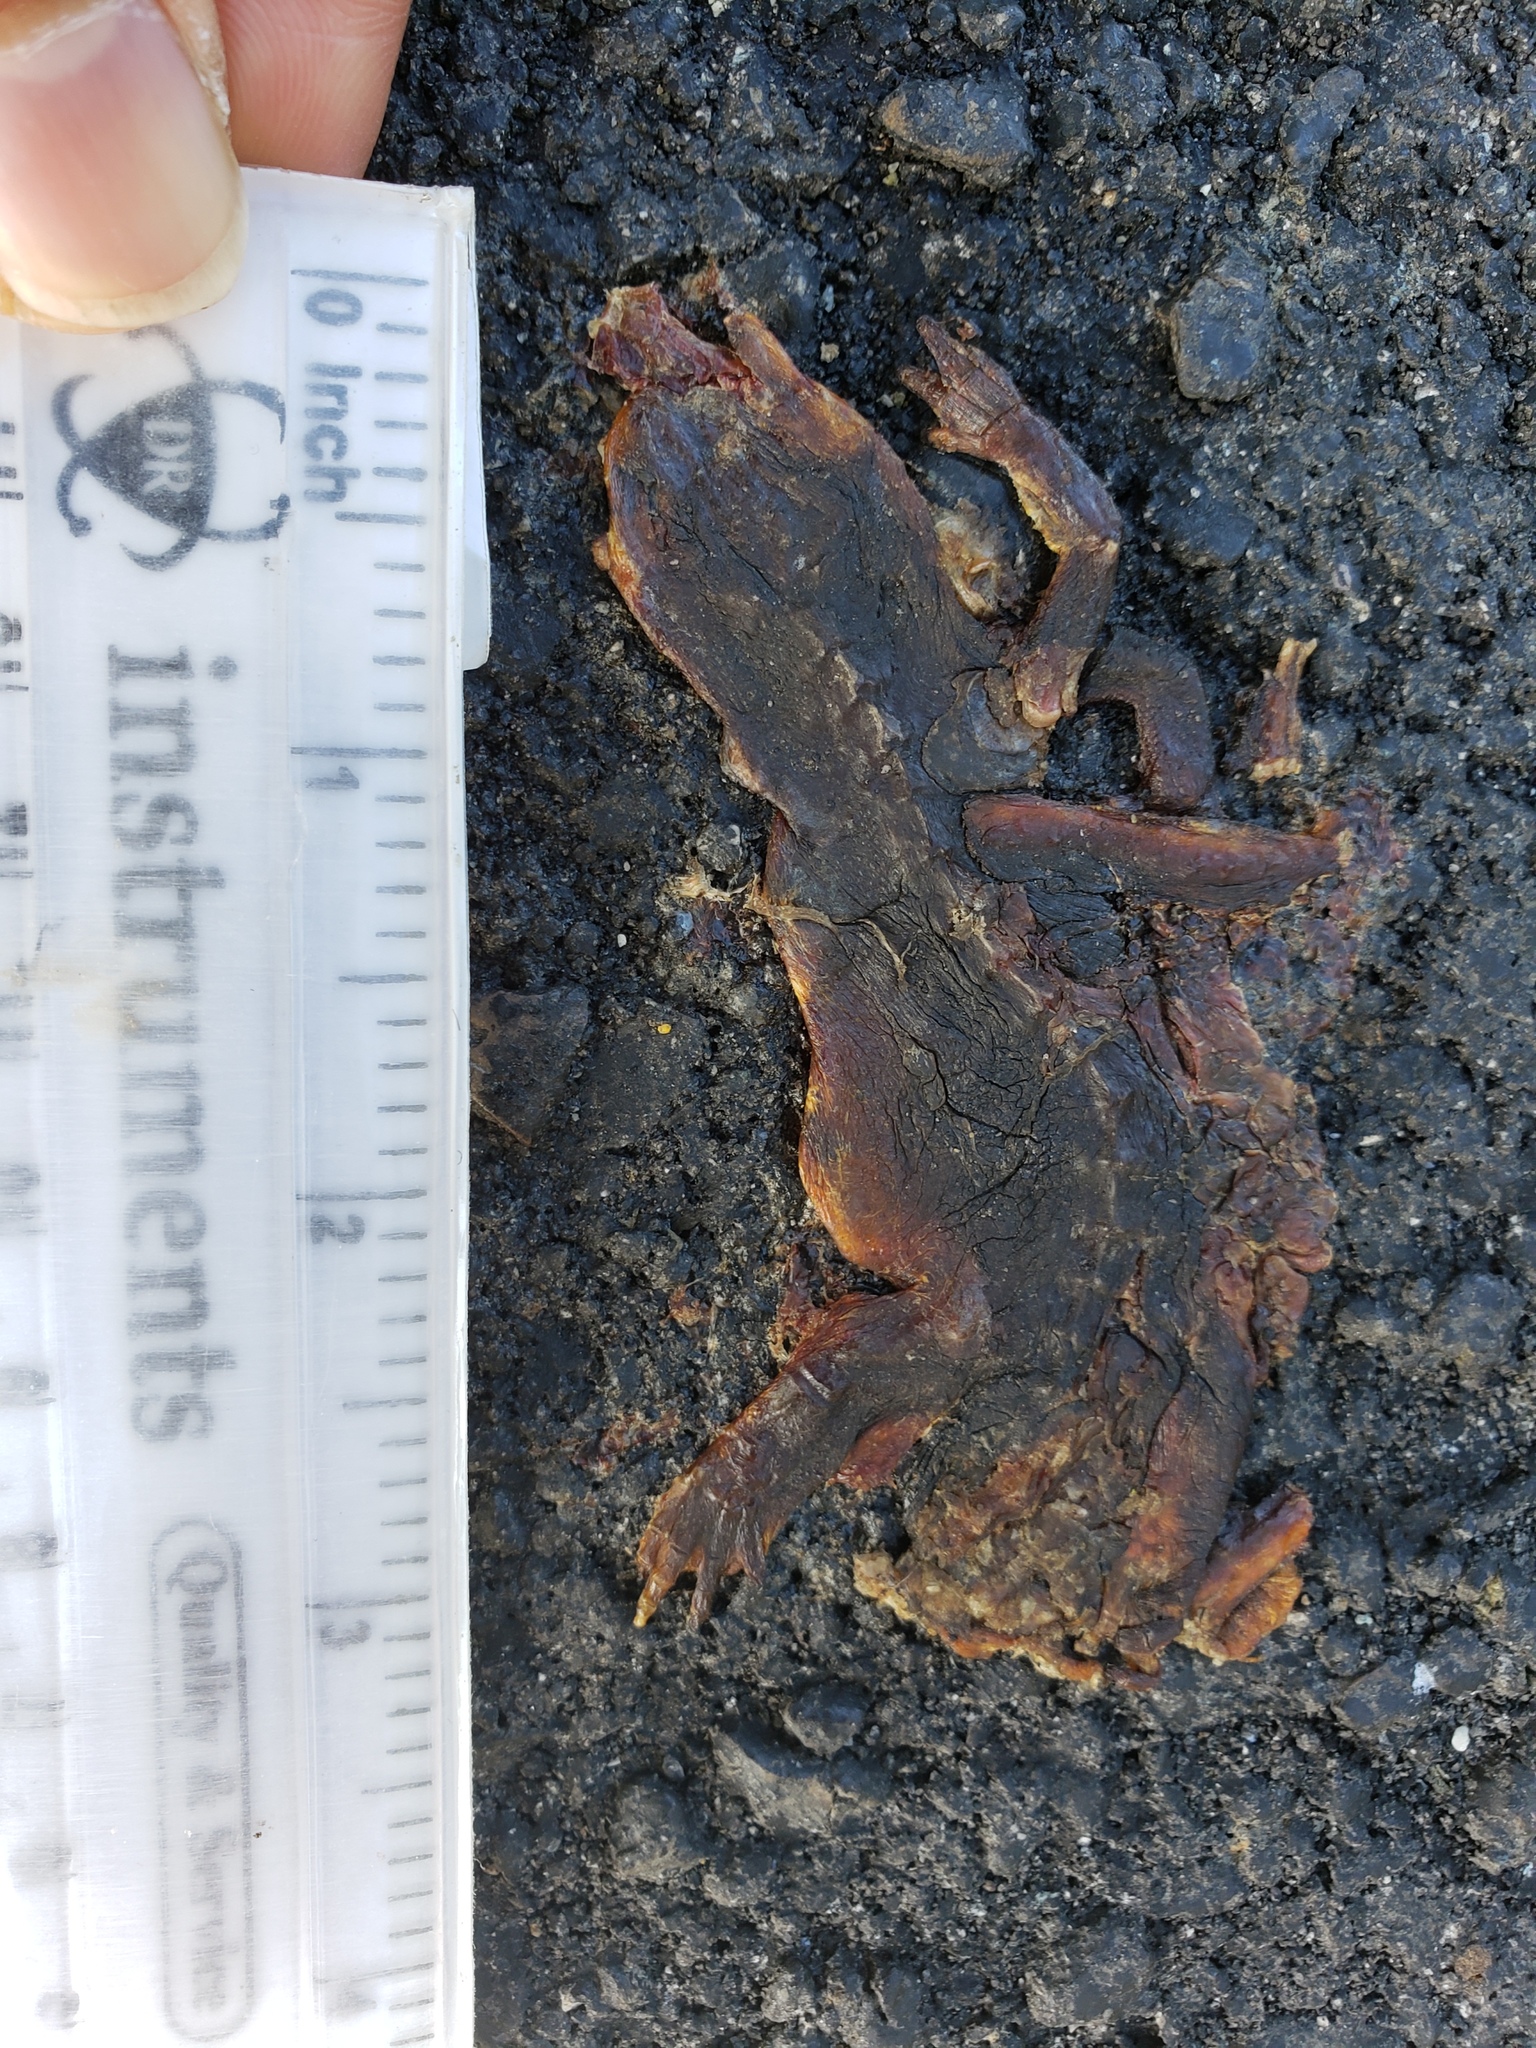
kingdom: Animalia
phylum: Chordata
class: Amphibia
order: Caudata
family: Salamandridae
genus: Taricha
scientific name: Taricha
